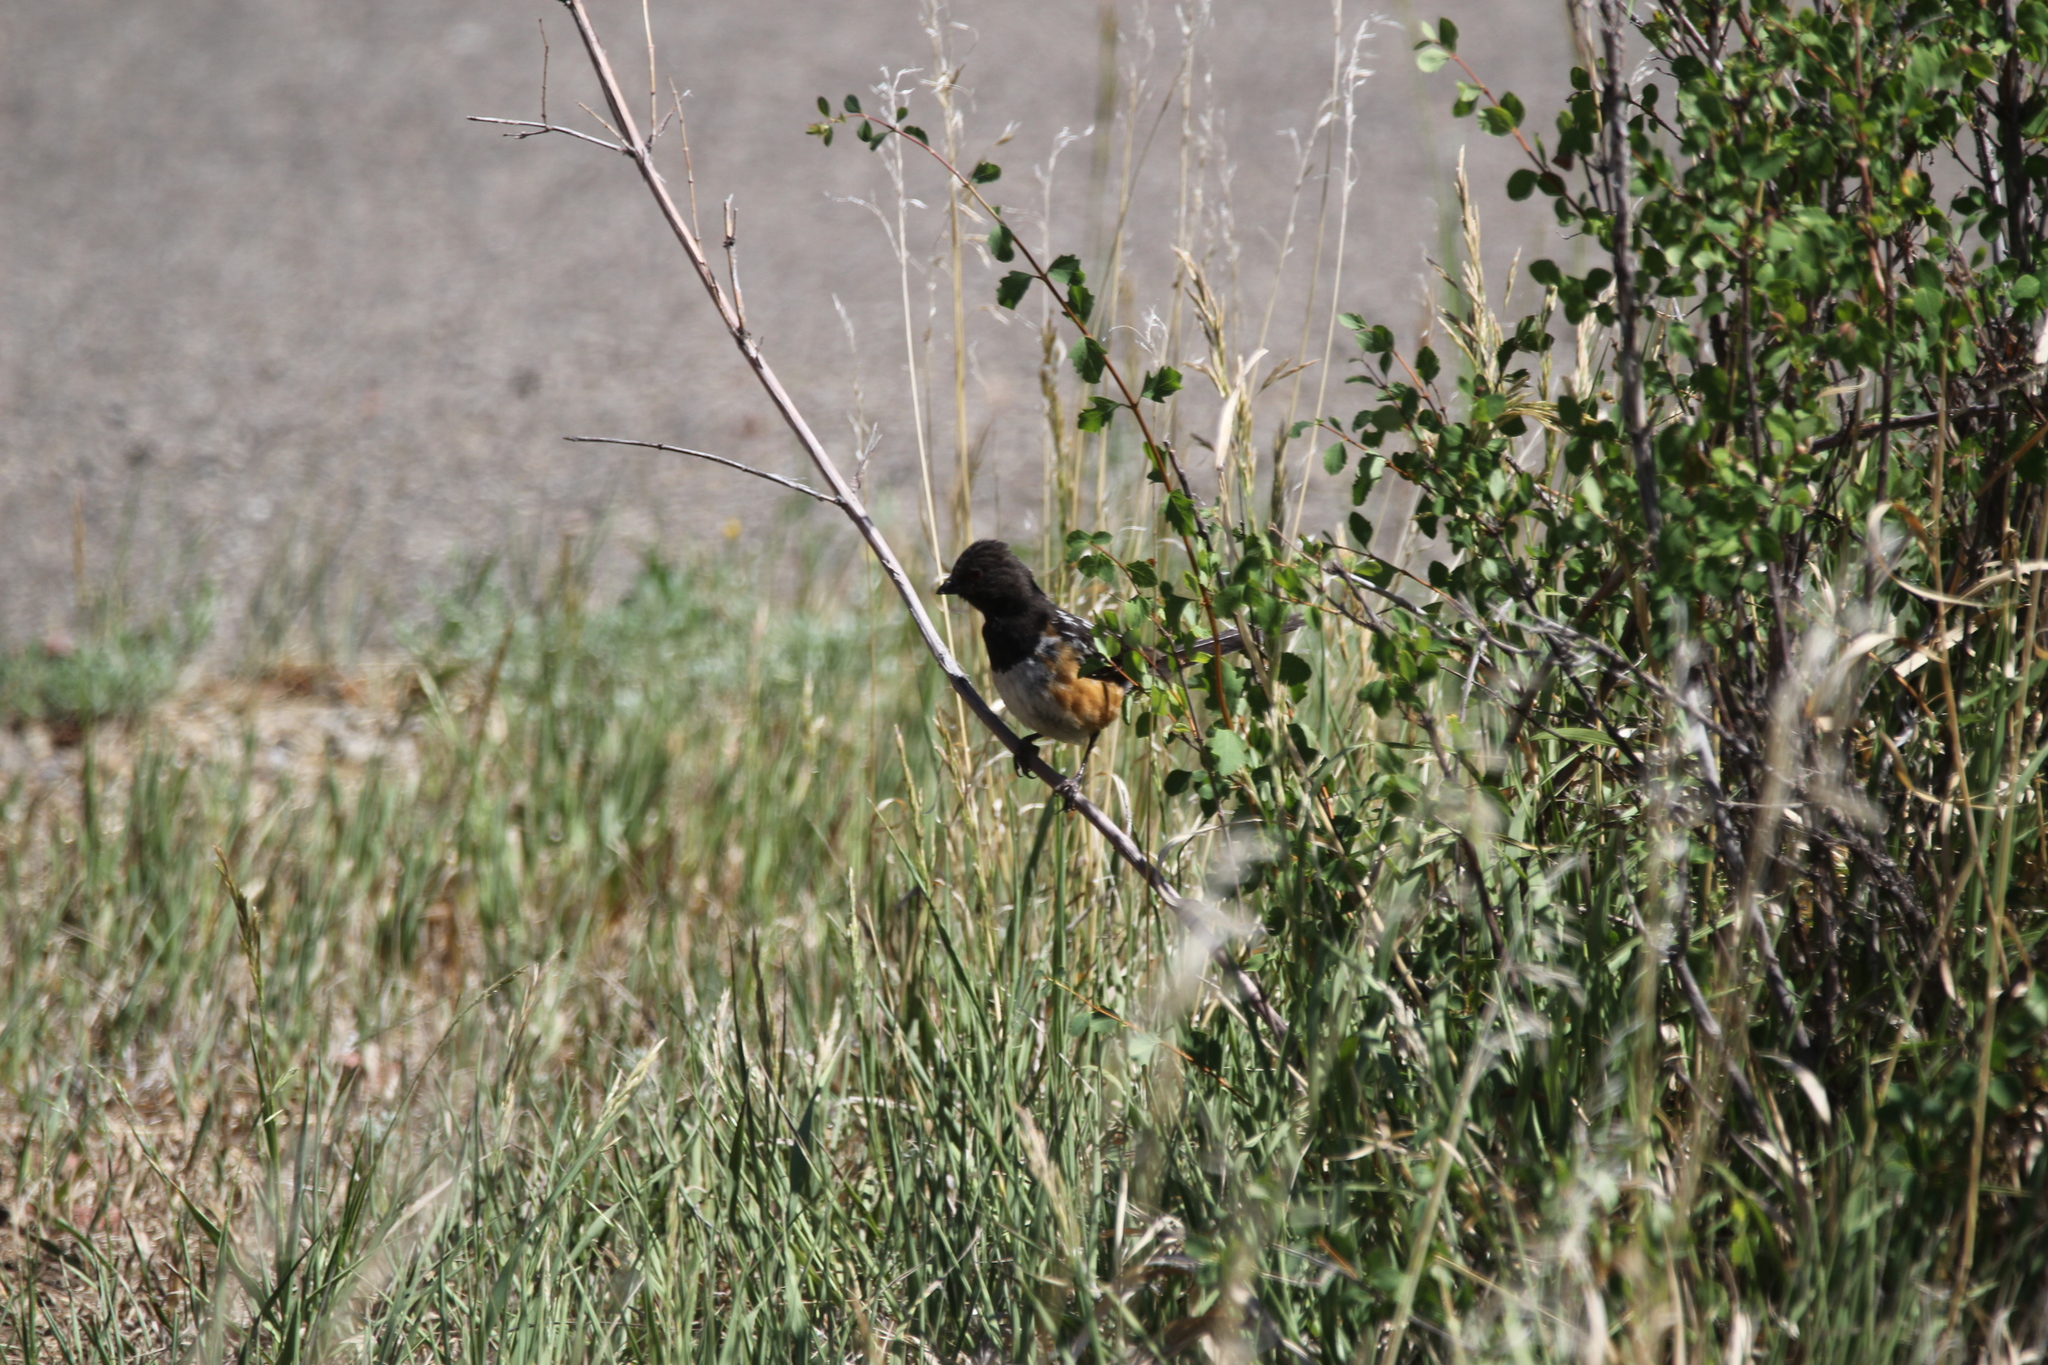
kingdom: Animalia
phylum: Chordata
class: Aves
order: Passeriformes
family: Passerellidae
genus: Pipilo
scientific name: Pipilo maculatus
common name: Spotted towhee
